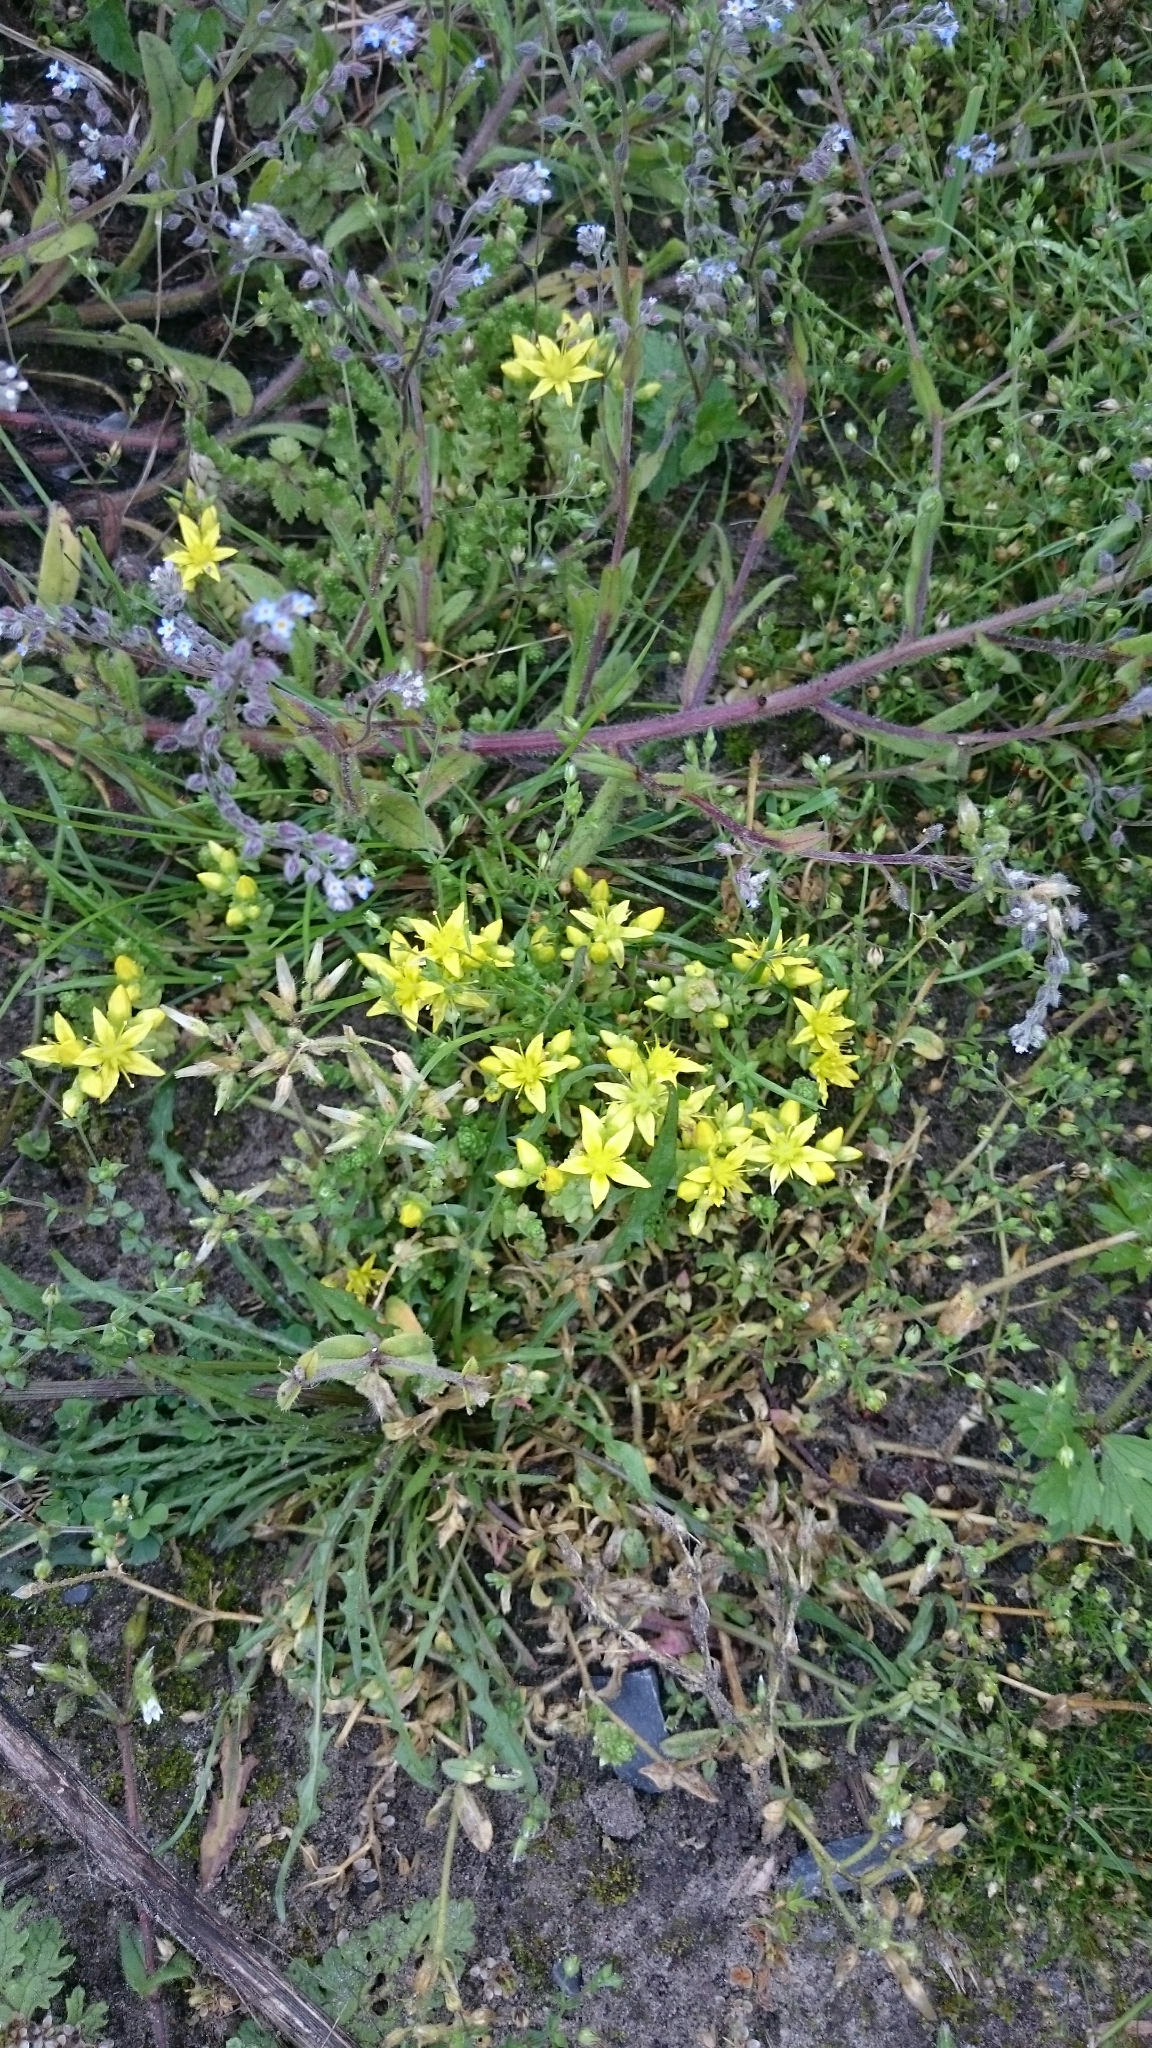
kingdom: Plantae
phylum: Tracheophyta
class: Magnoliopsida
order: Saxifragales
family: Crassulaceae
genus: Sedum
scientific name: Sedum acre
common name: Biting stonecrop
